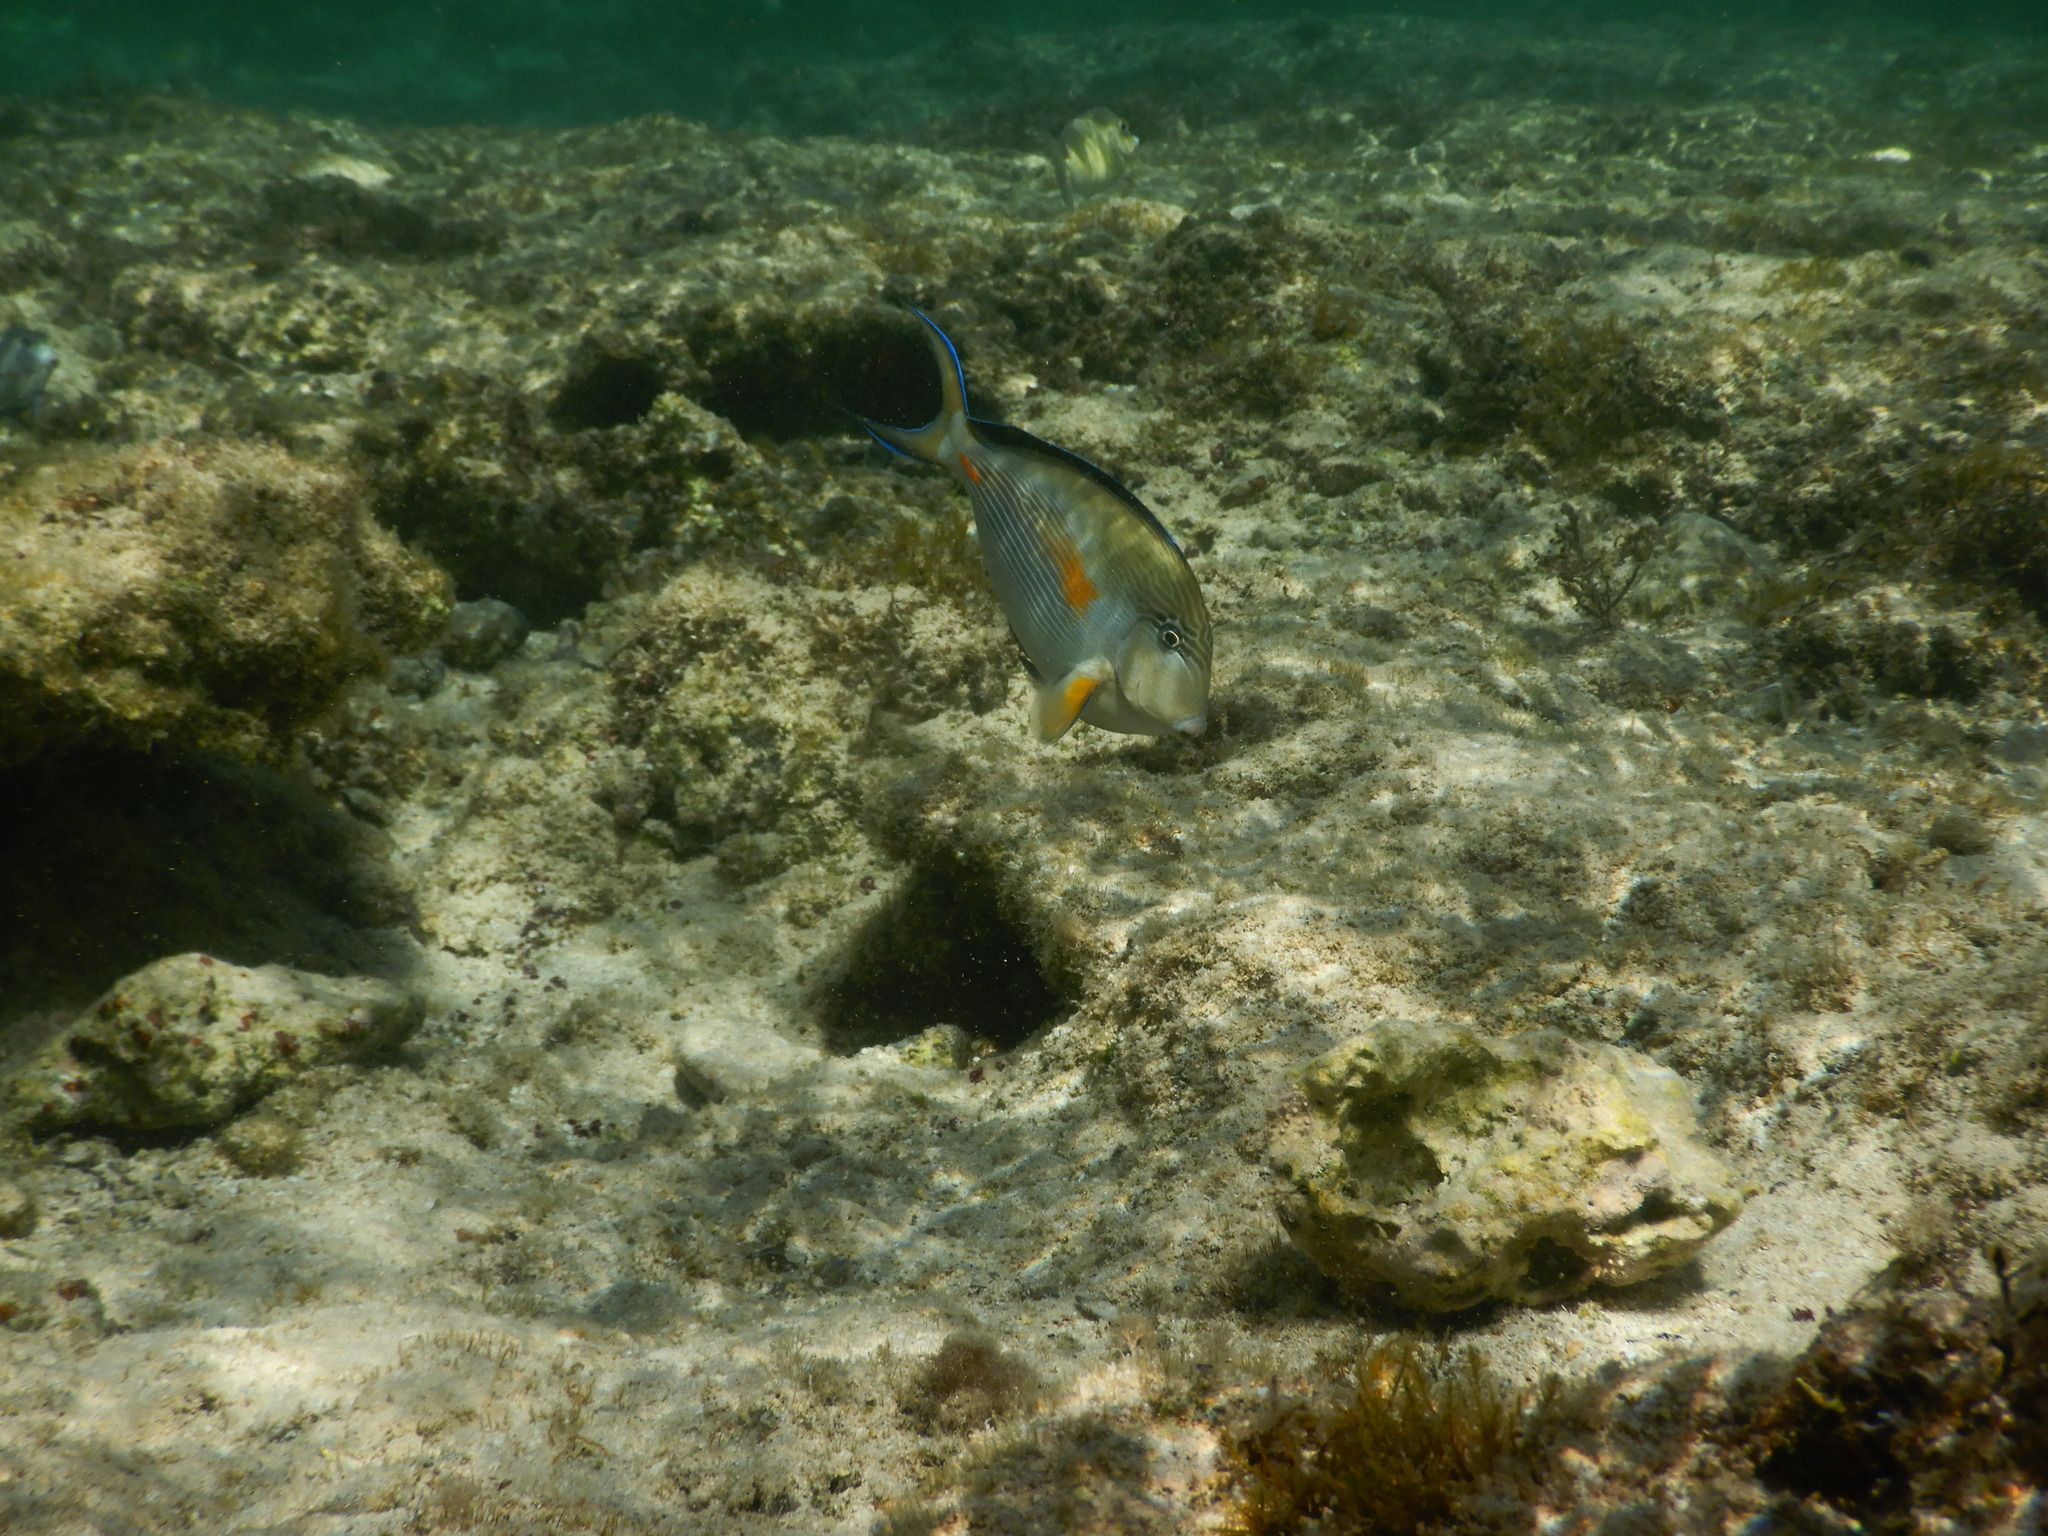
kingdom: Animalia
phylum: Chordata
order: Perciformes
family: Acanthuridae
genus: Acanthurus
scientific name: Acanthurus sohal
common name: Red sea surgeonfish
